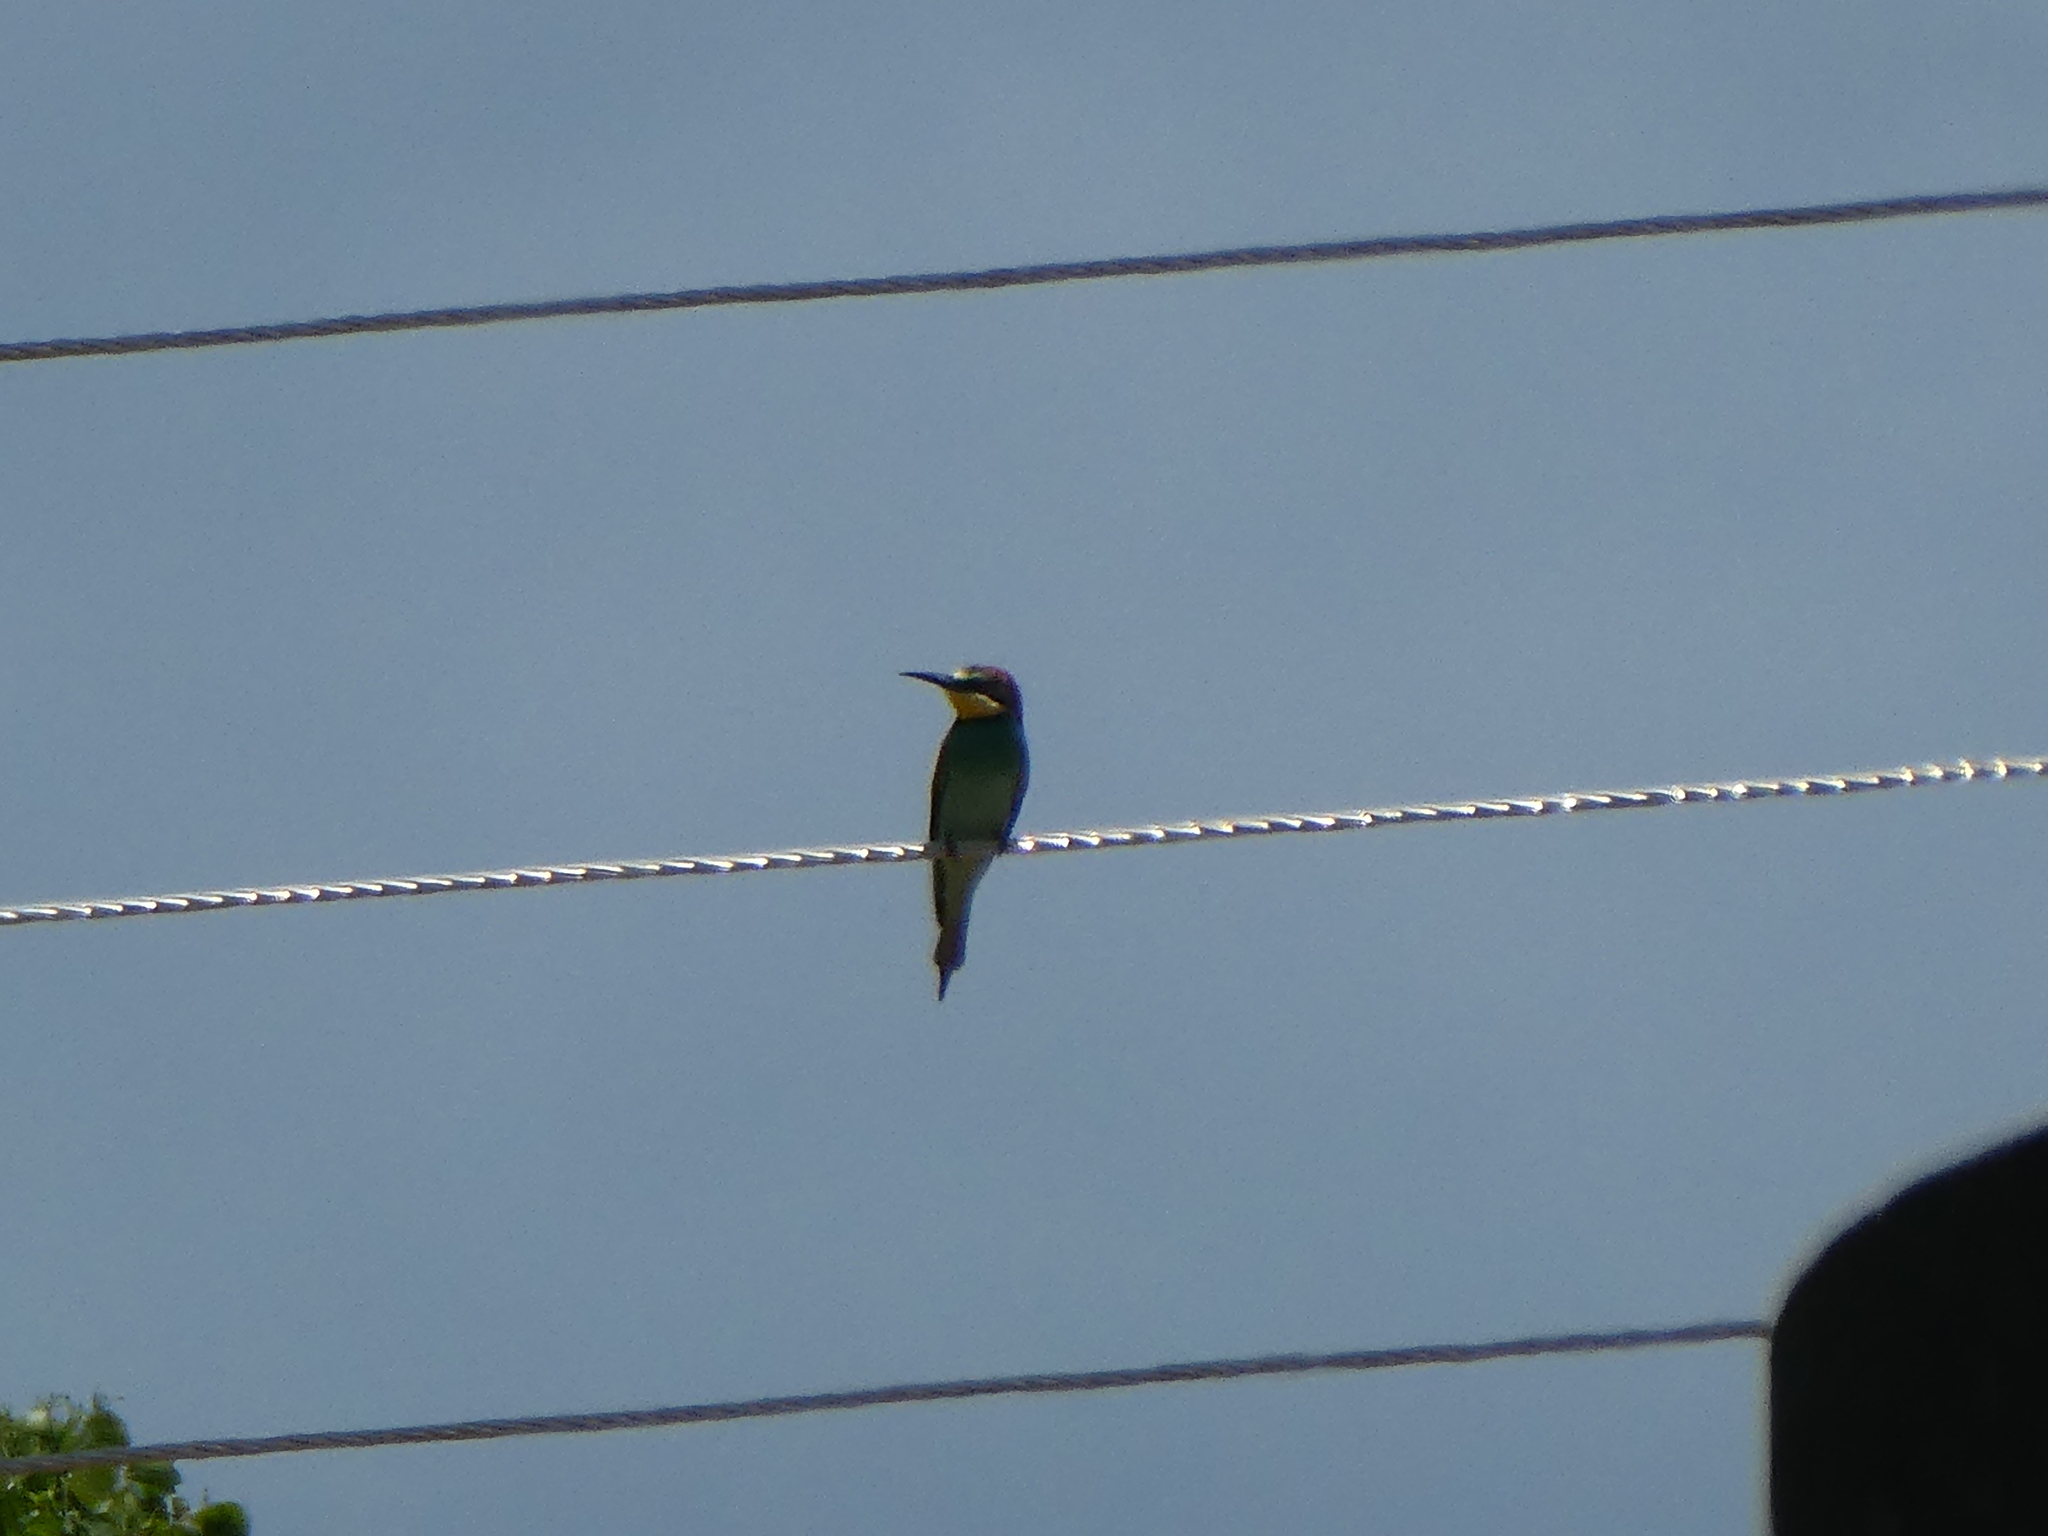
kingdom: Animalia
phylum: Chordata
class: Aves
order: Coraciiformes
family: Meropidae
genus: Merops
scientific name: Merops apiaster
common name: European bee-eater
